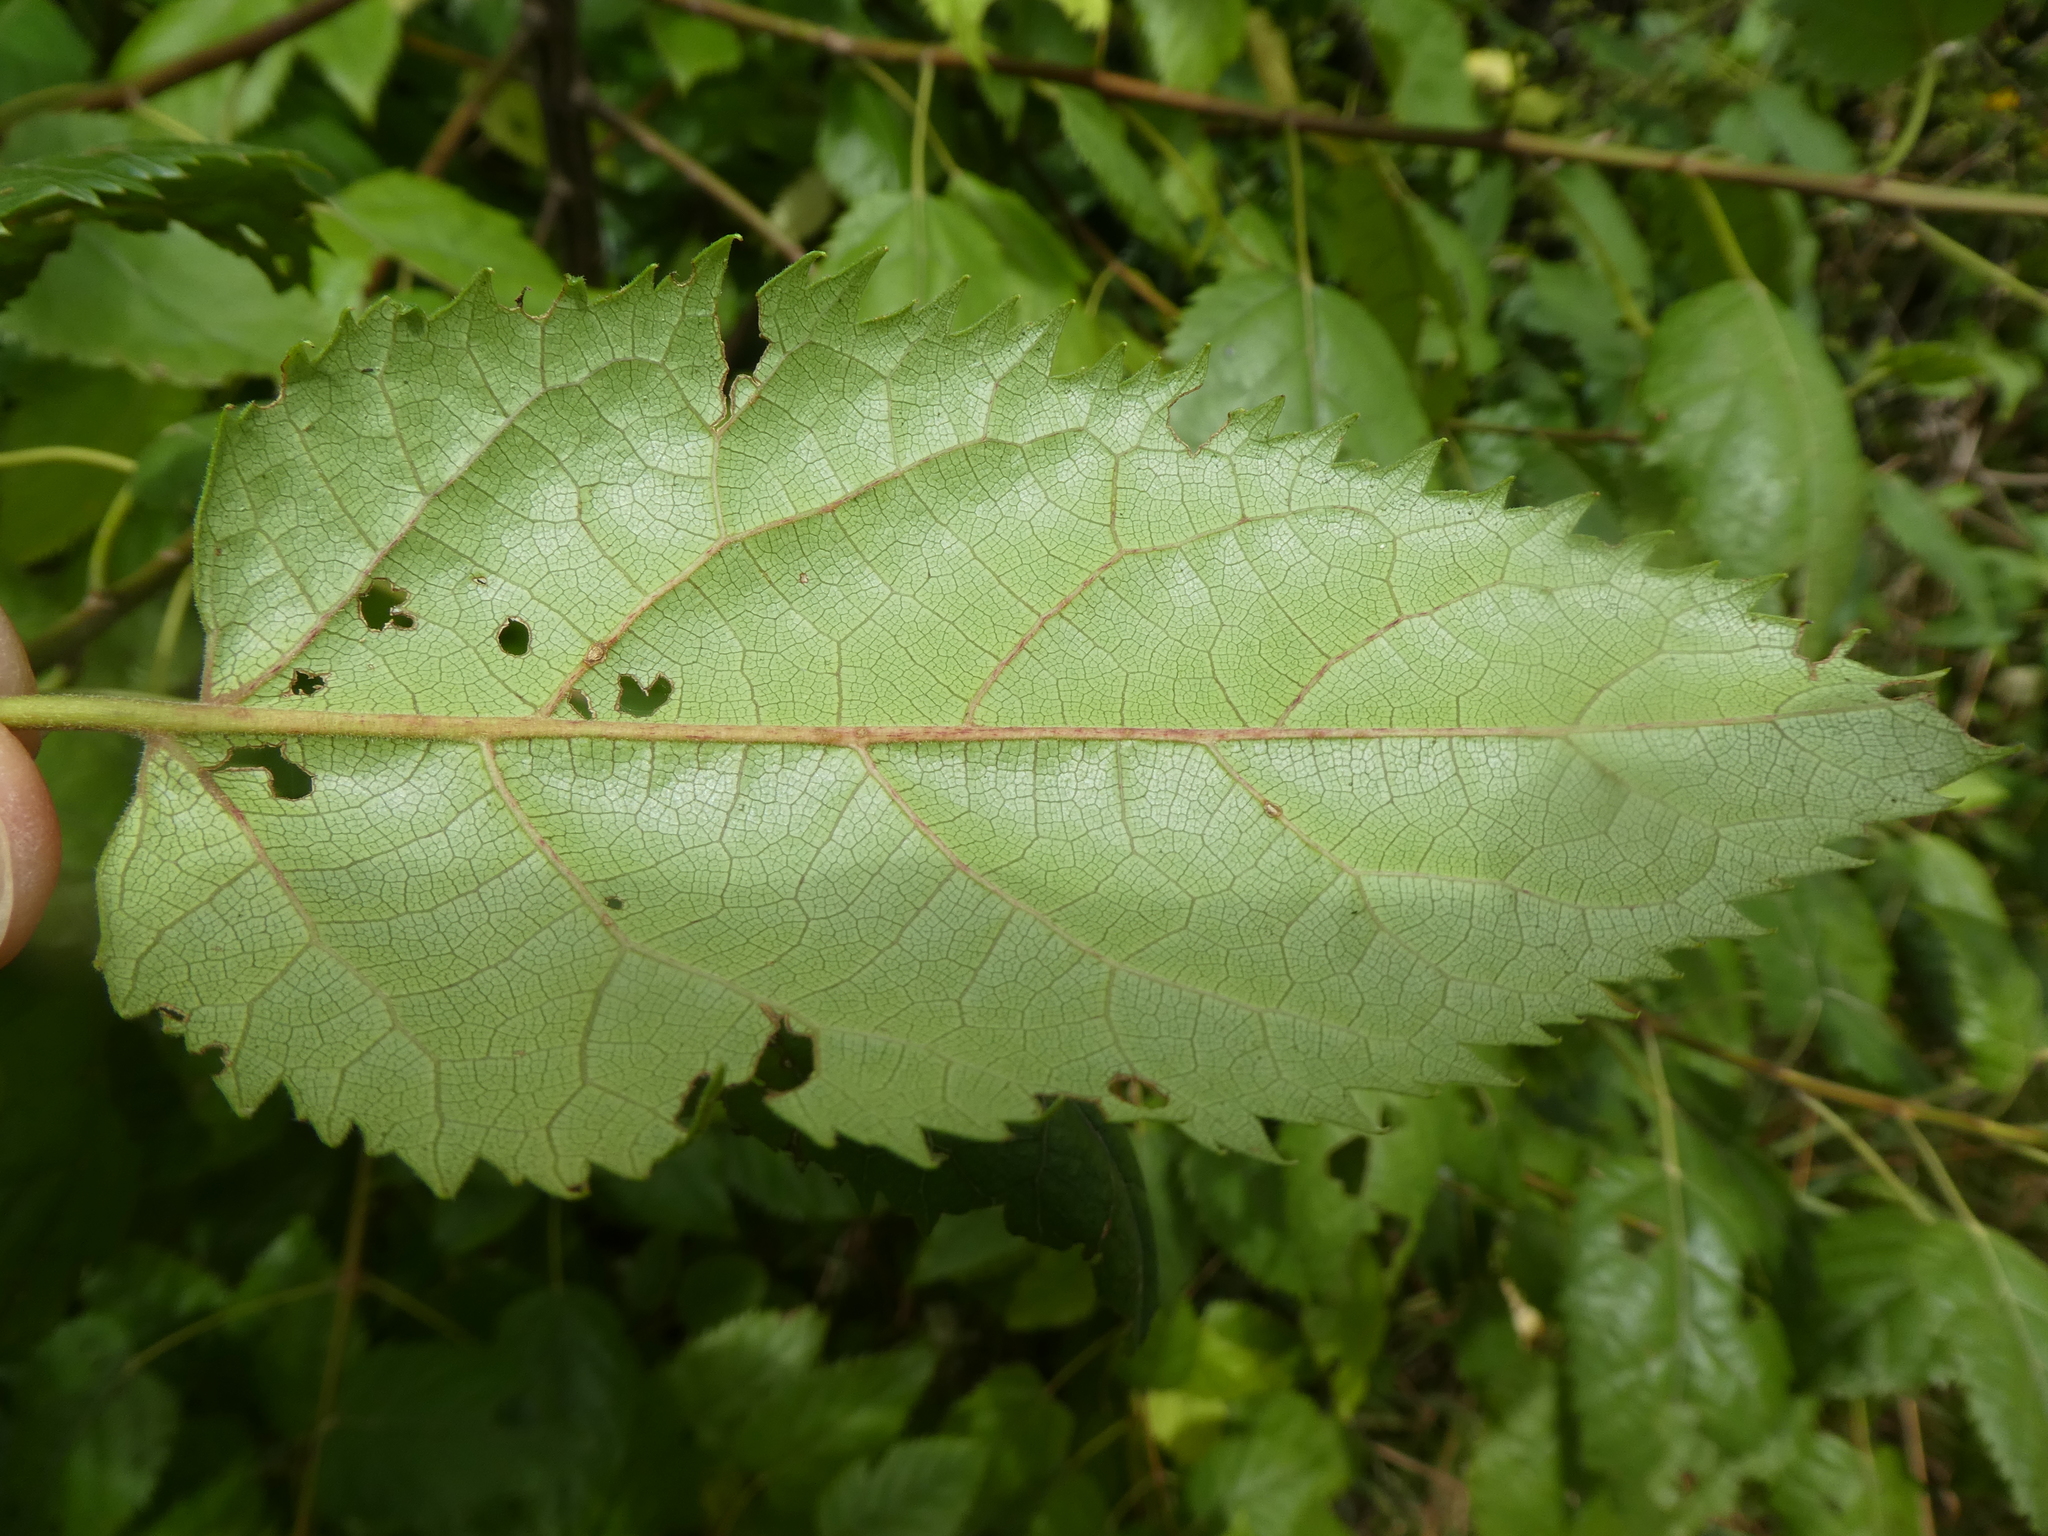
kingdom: Plantae
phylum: Tracheophyta
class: Magnoliopsida
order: Oxalidales
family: Elaeocarpaceae
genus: Aristotelia
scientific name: Aristotelia serrata
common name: New zealand wineberry
